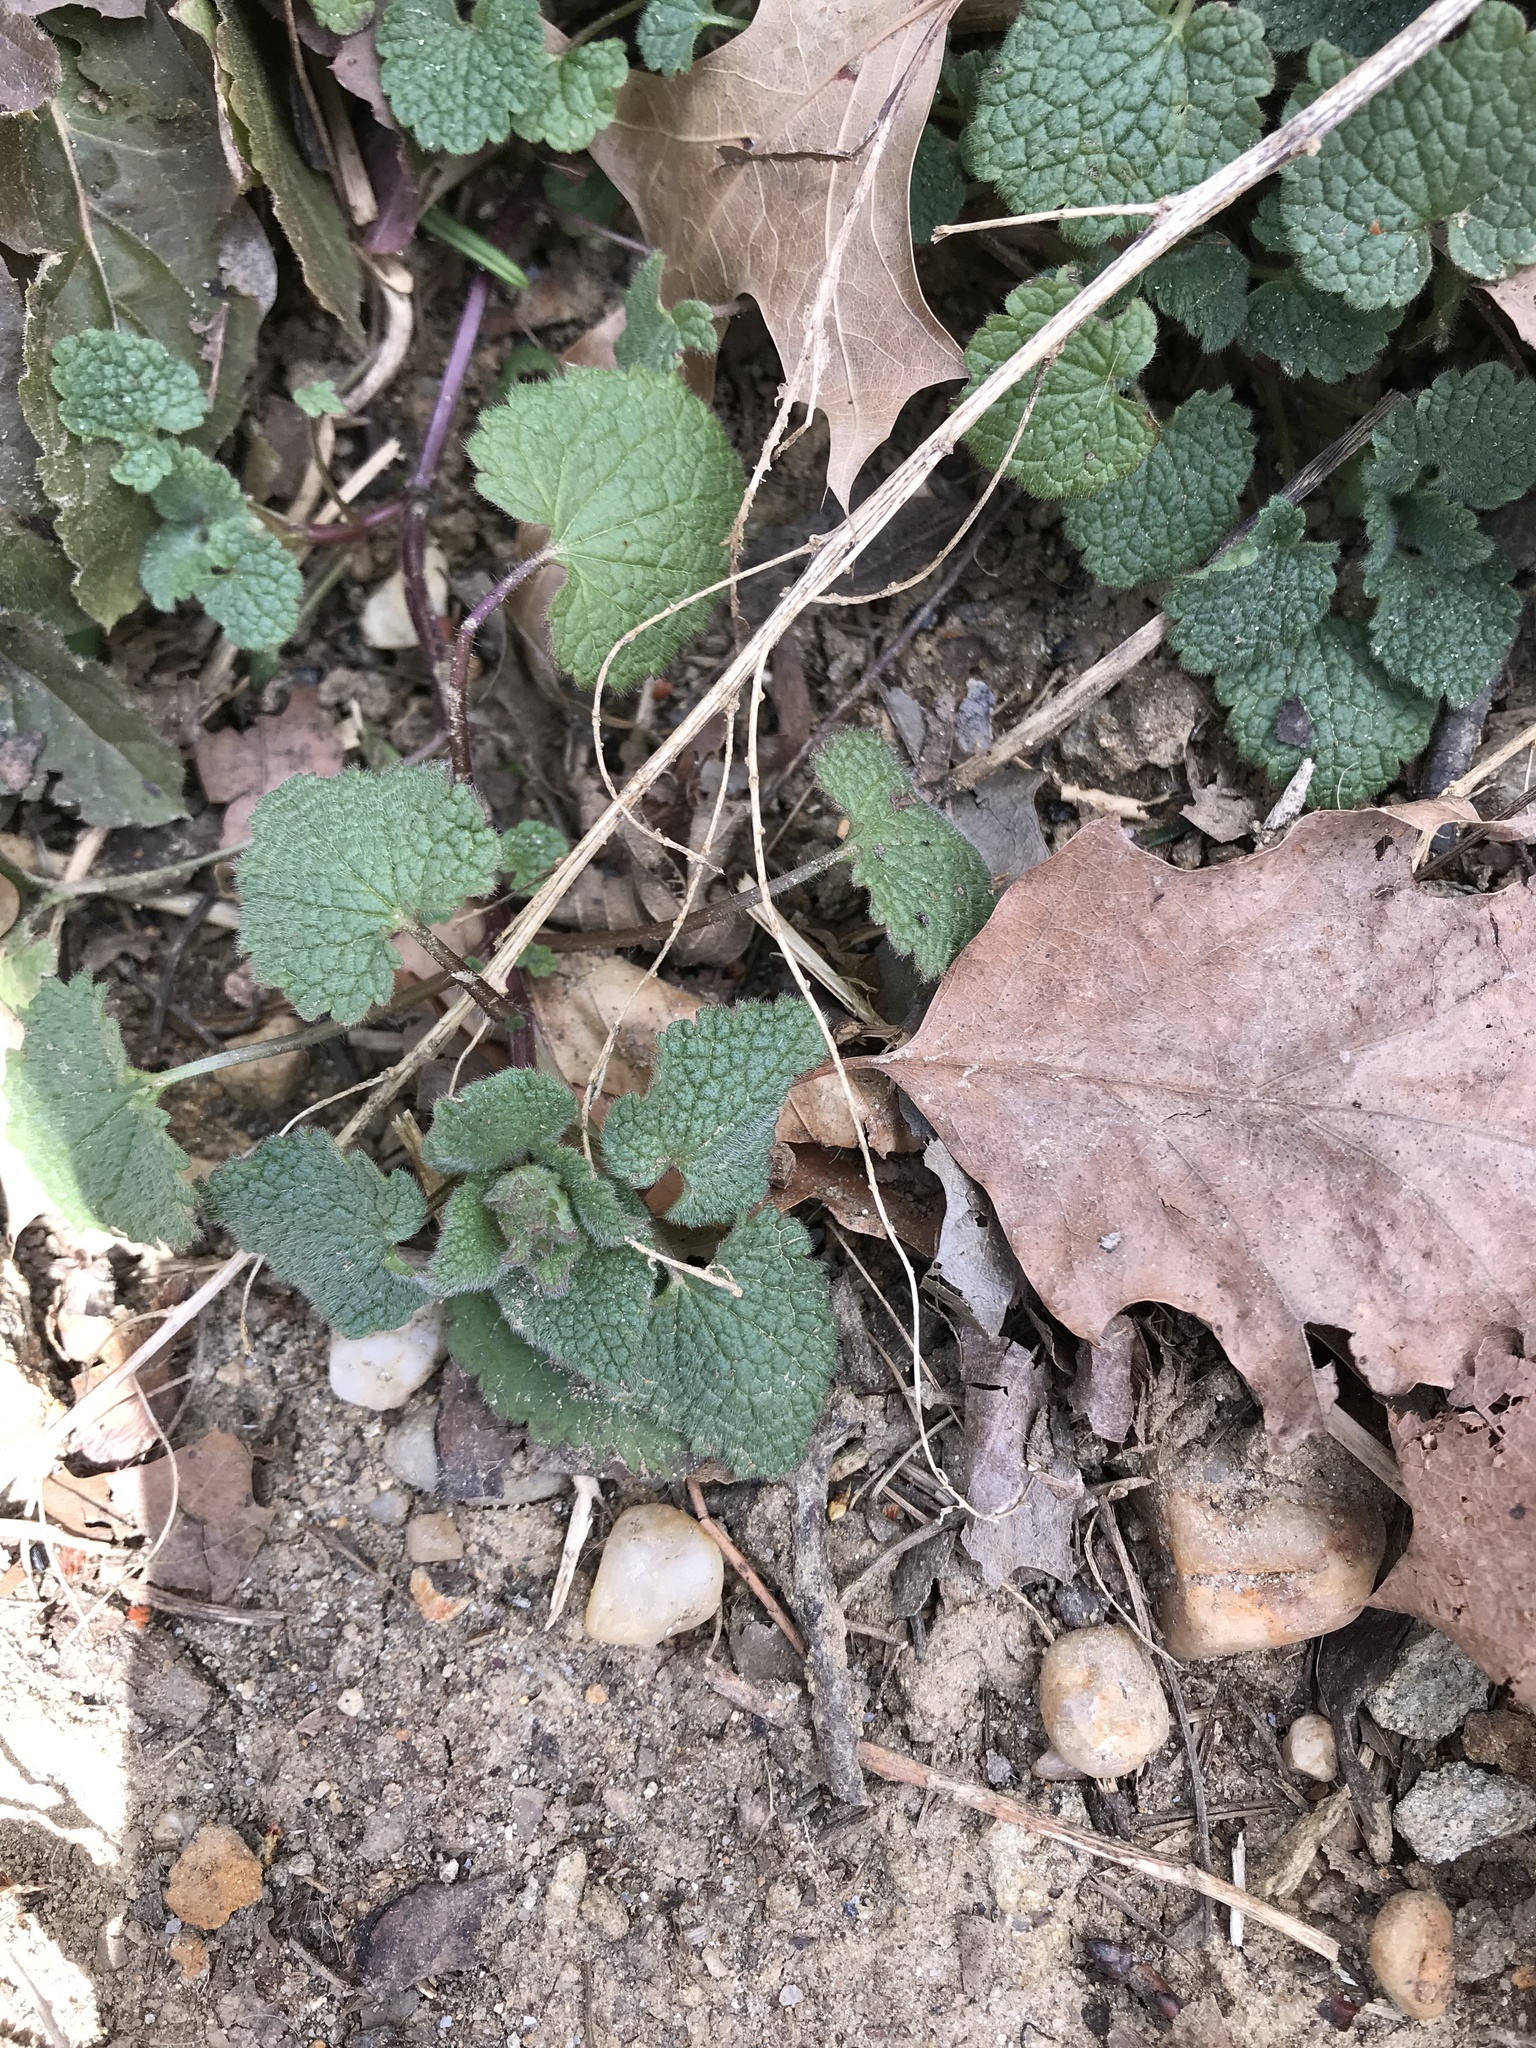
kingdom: Plantae
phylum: Tracheophyta
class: Magnoliopsida
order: Lamiales
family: Lamiaceae
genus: Lamium
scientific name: Lamium purpureum
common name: Red dead-nettle
